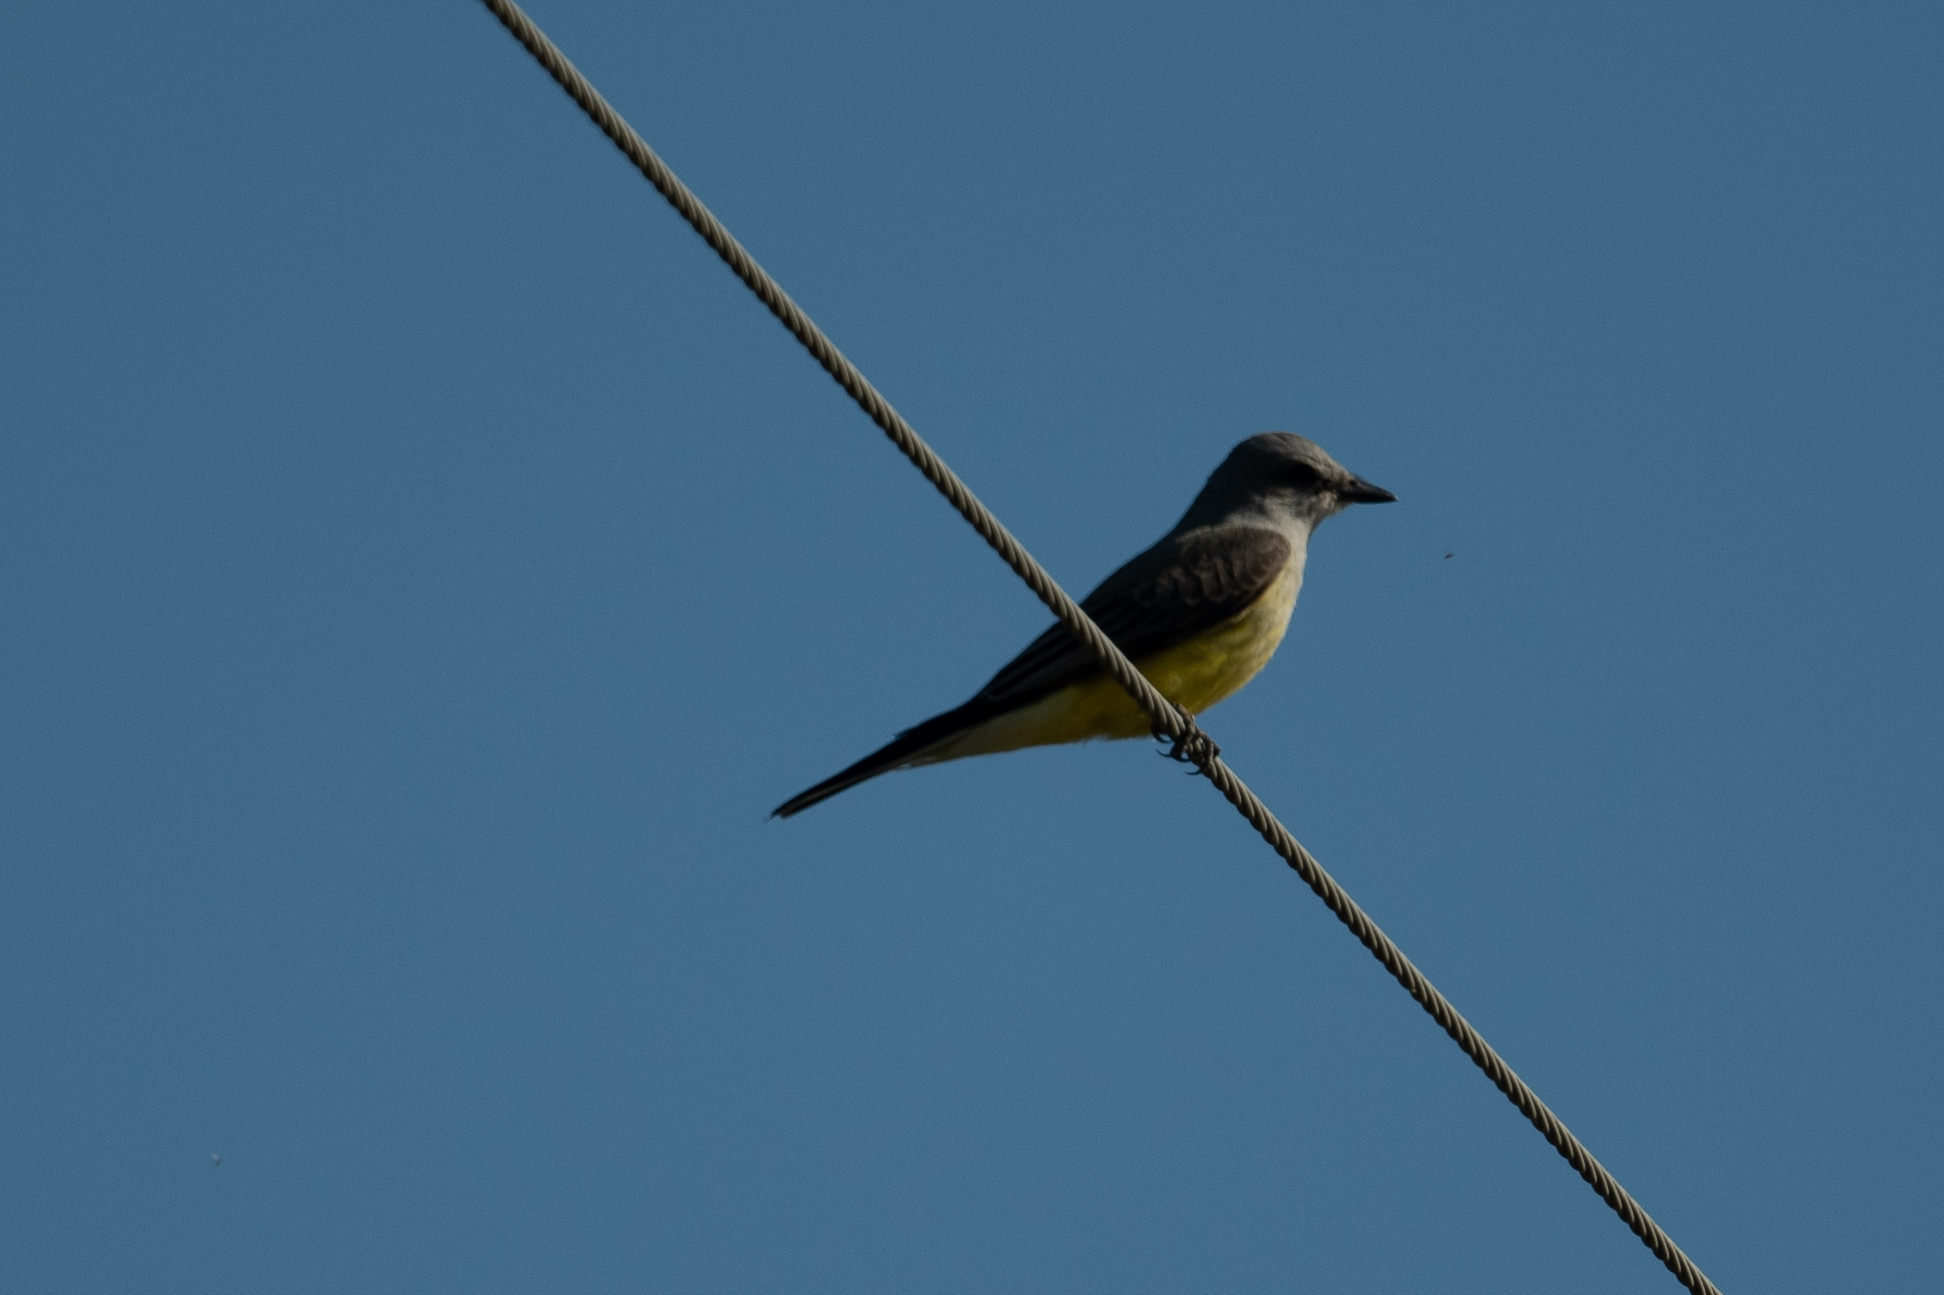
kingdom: Animalia
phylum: Chordata
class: Aves
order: Passeriformes
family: Tyrannidae
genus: Tyrannus
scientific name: Tyrannus verticalis
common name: Western kingbird
